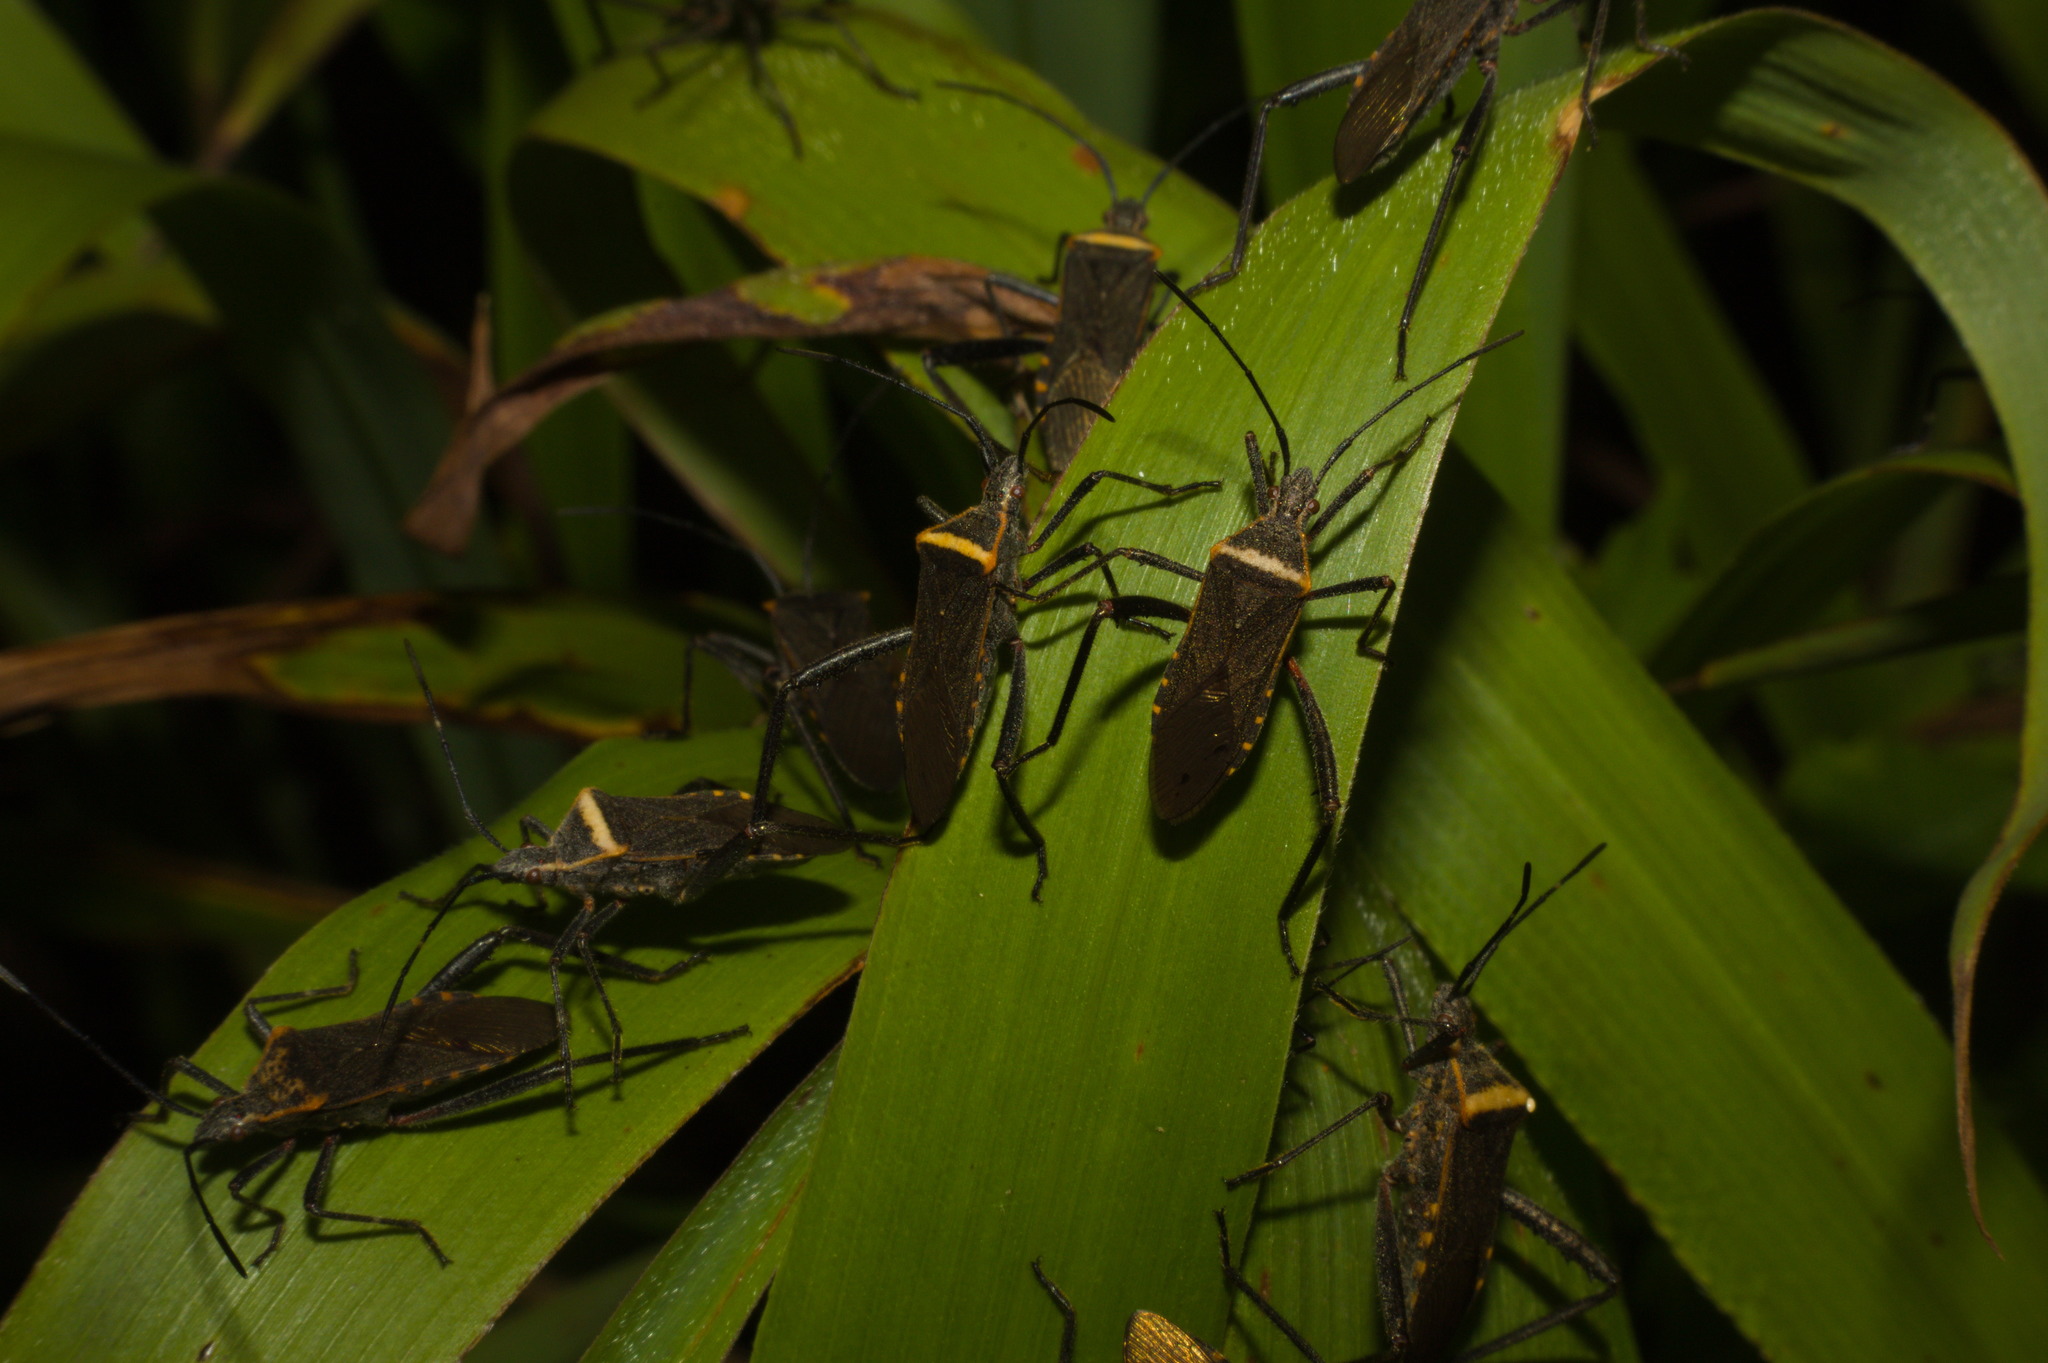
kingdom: Animalia
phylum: Arthropoda
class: Insecta
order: Hemiptera
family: Coreidae
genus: Phthiacnemia
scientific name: Phthiacnemia picta
